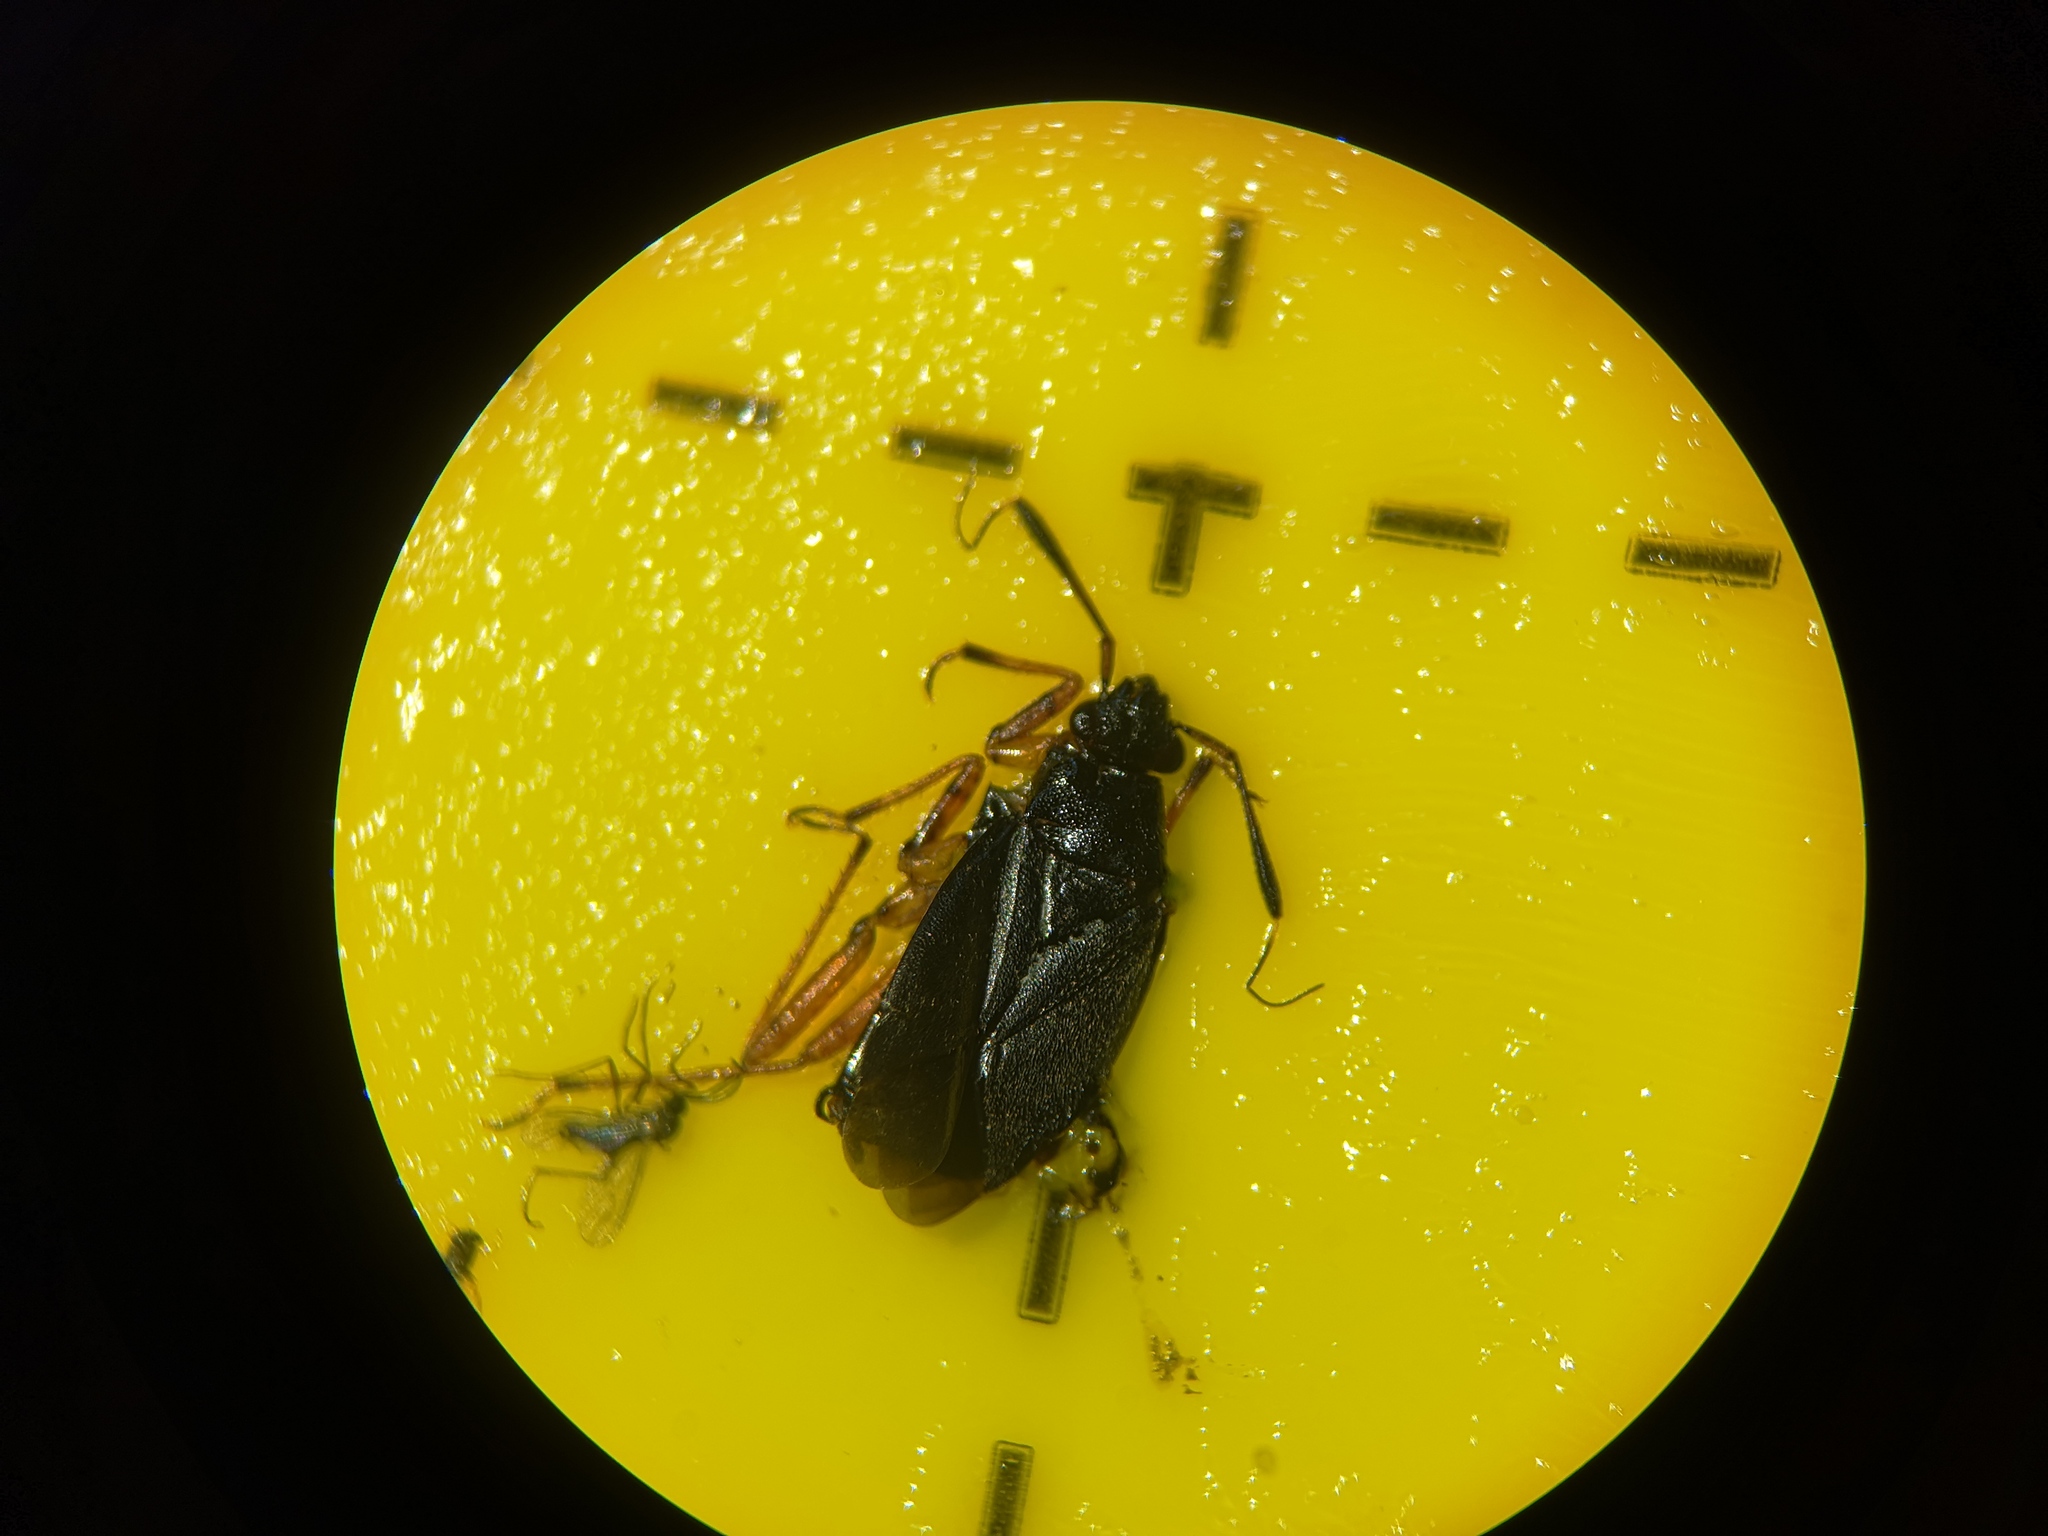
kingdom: Animalia
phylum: Arthropoda
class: Insecta
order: Hemiptera
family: Miridae
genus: Capsus
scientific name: Capsus ater
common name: Black plant bug
